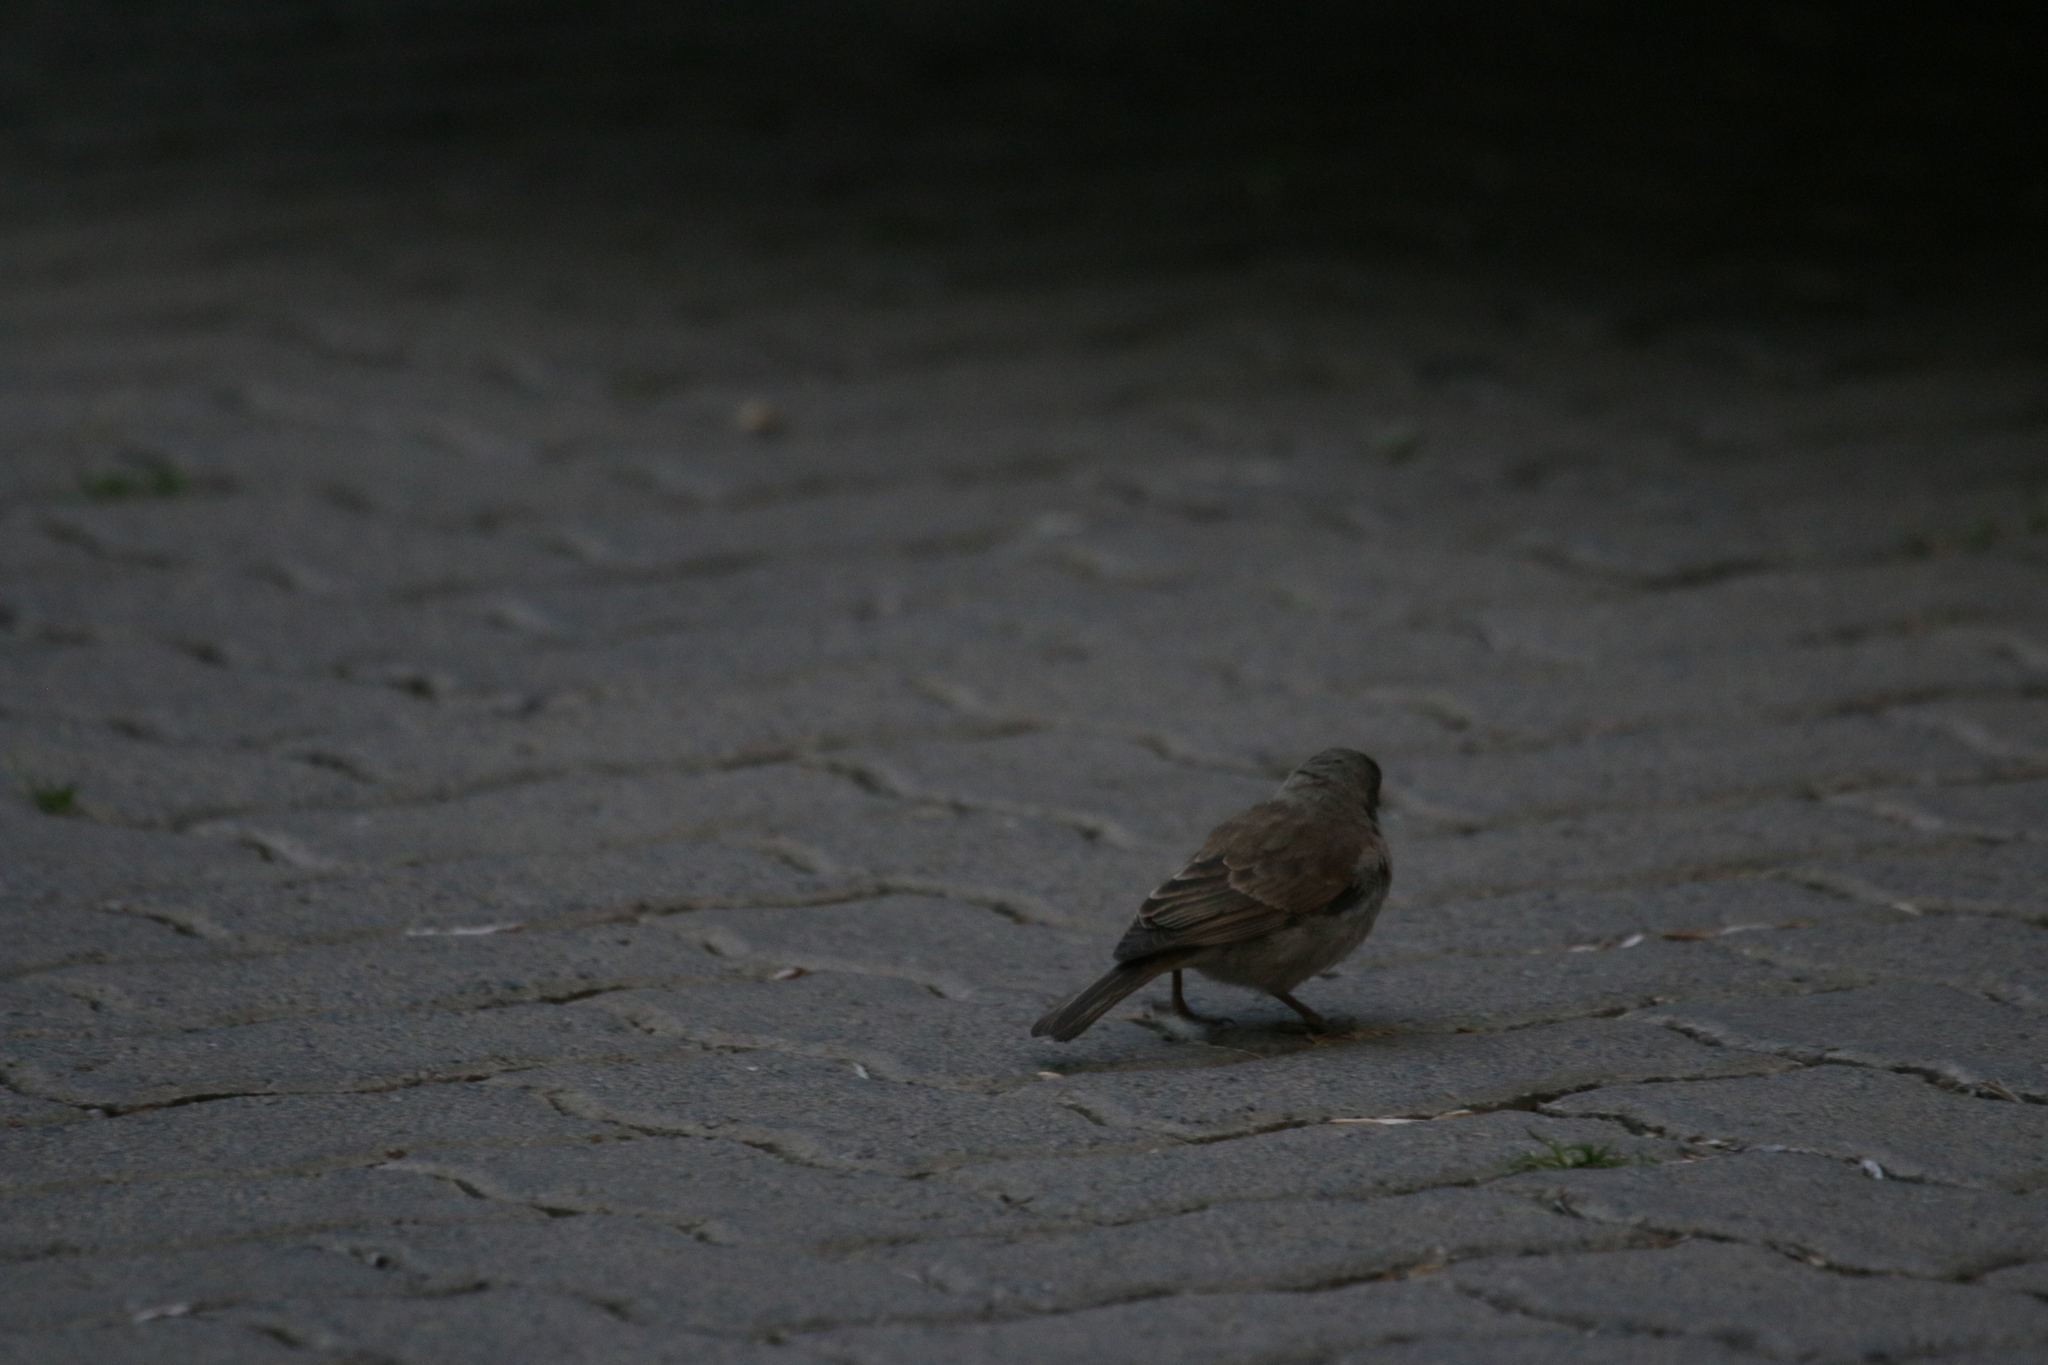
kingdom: Animalia
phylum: Chordata
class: Aves
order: Passeriformes
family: Passeridae
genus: Passer
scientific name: Passer diffusus
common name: Southern grey-headed sparrow
